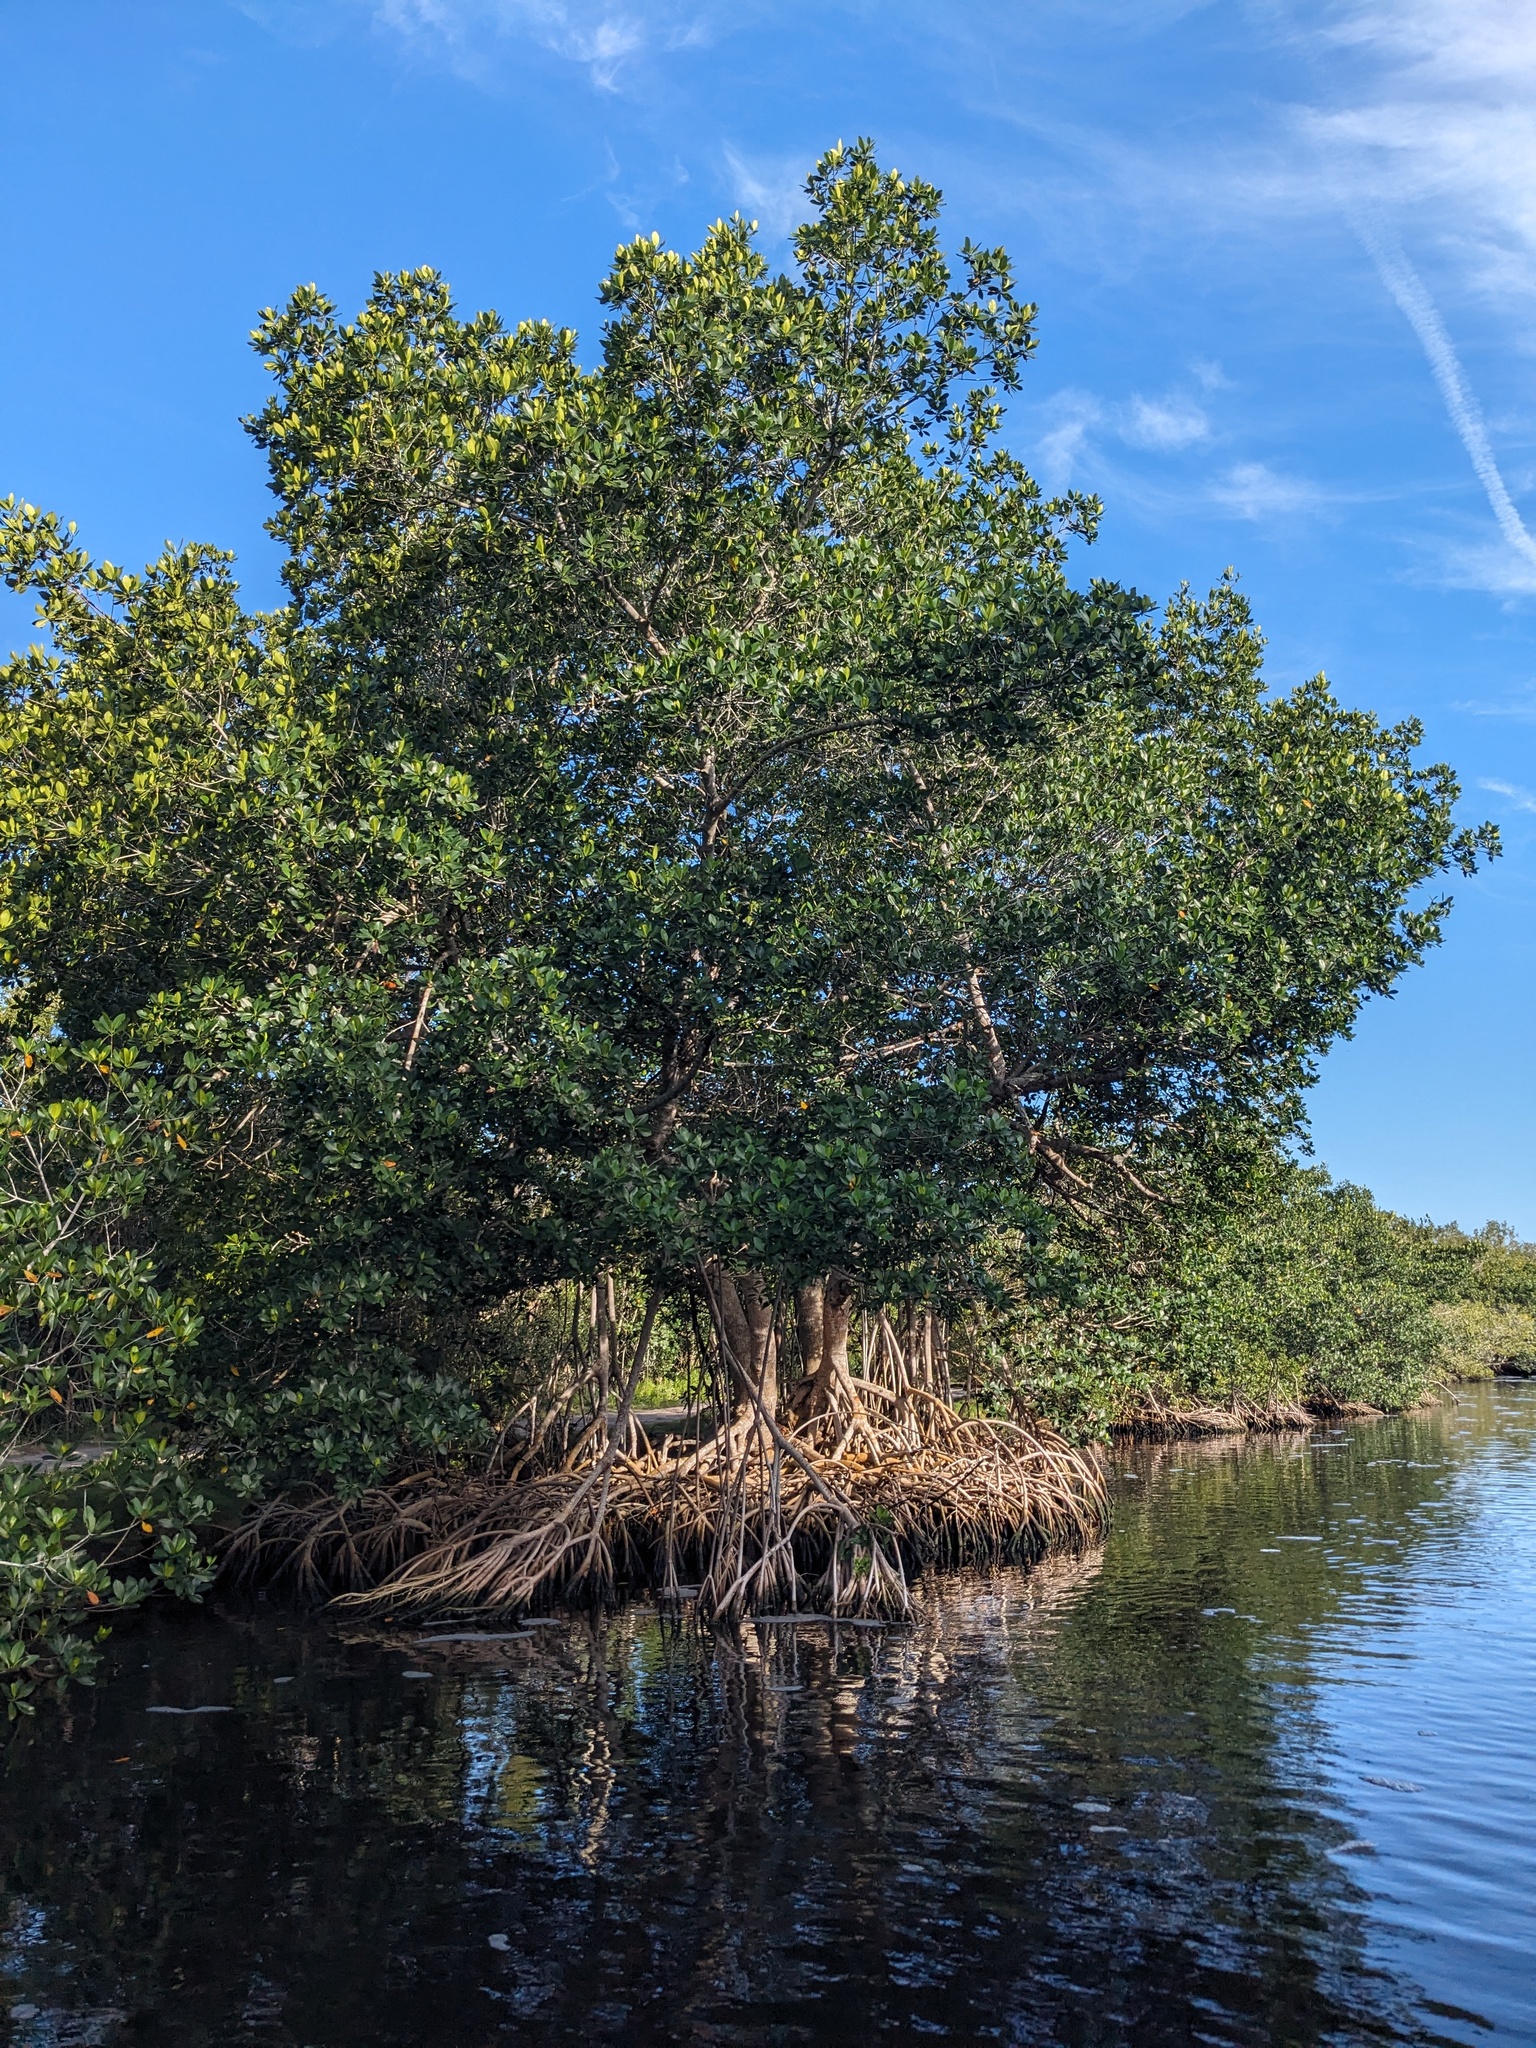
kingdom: Plantae
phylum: Tracheophyta
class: Magnoliopsida
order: Malpighiales
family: Rhizophoraceae
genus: Rhizophora
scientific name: Rhizophora mangle
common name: Red mangrove
